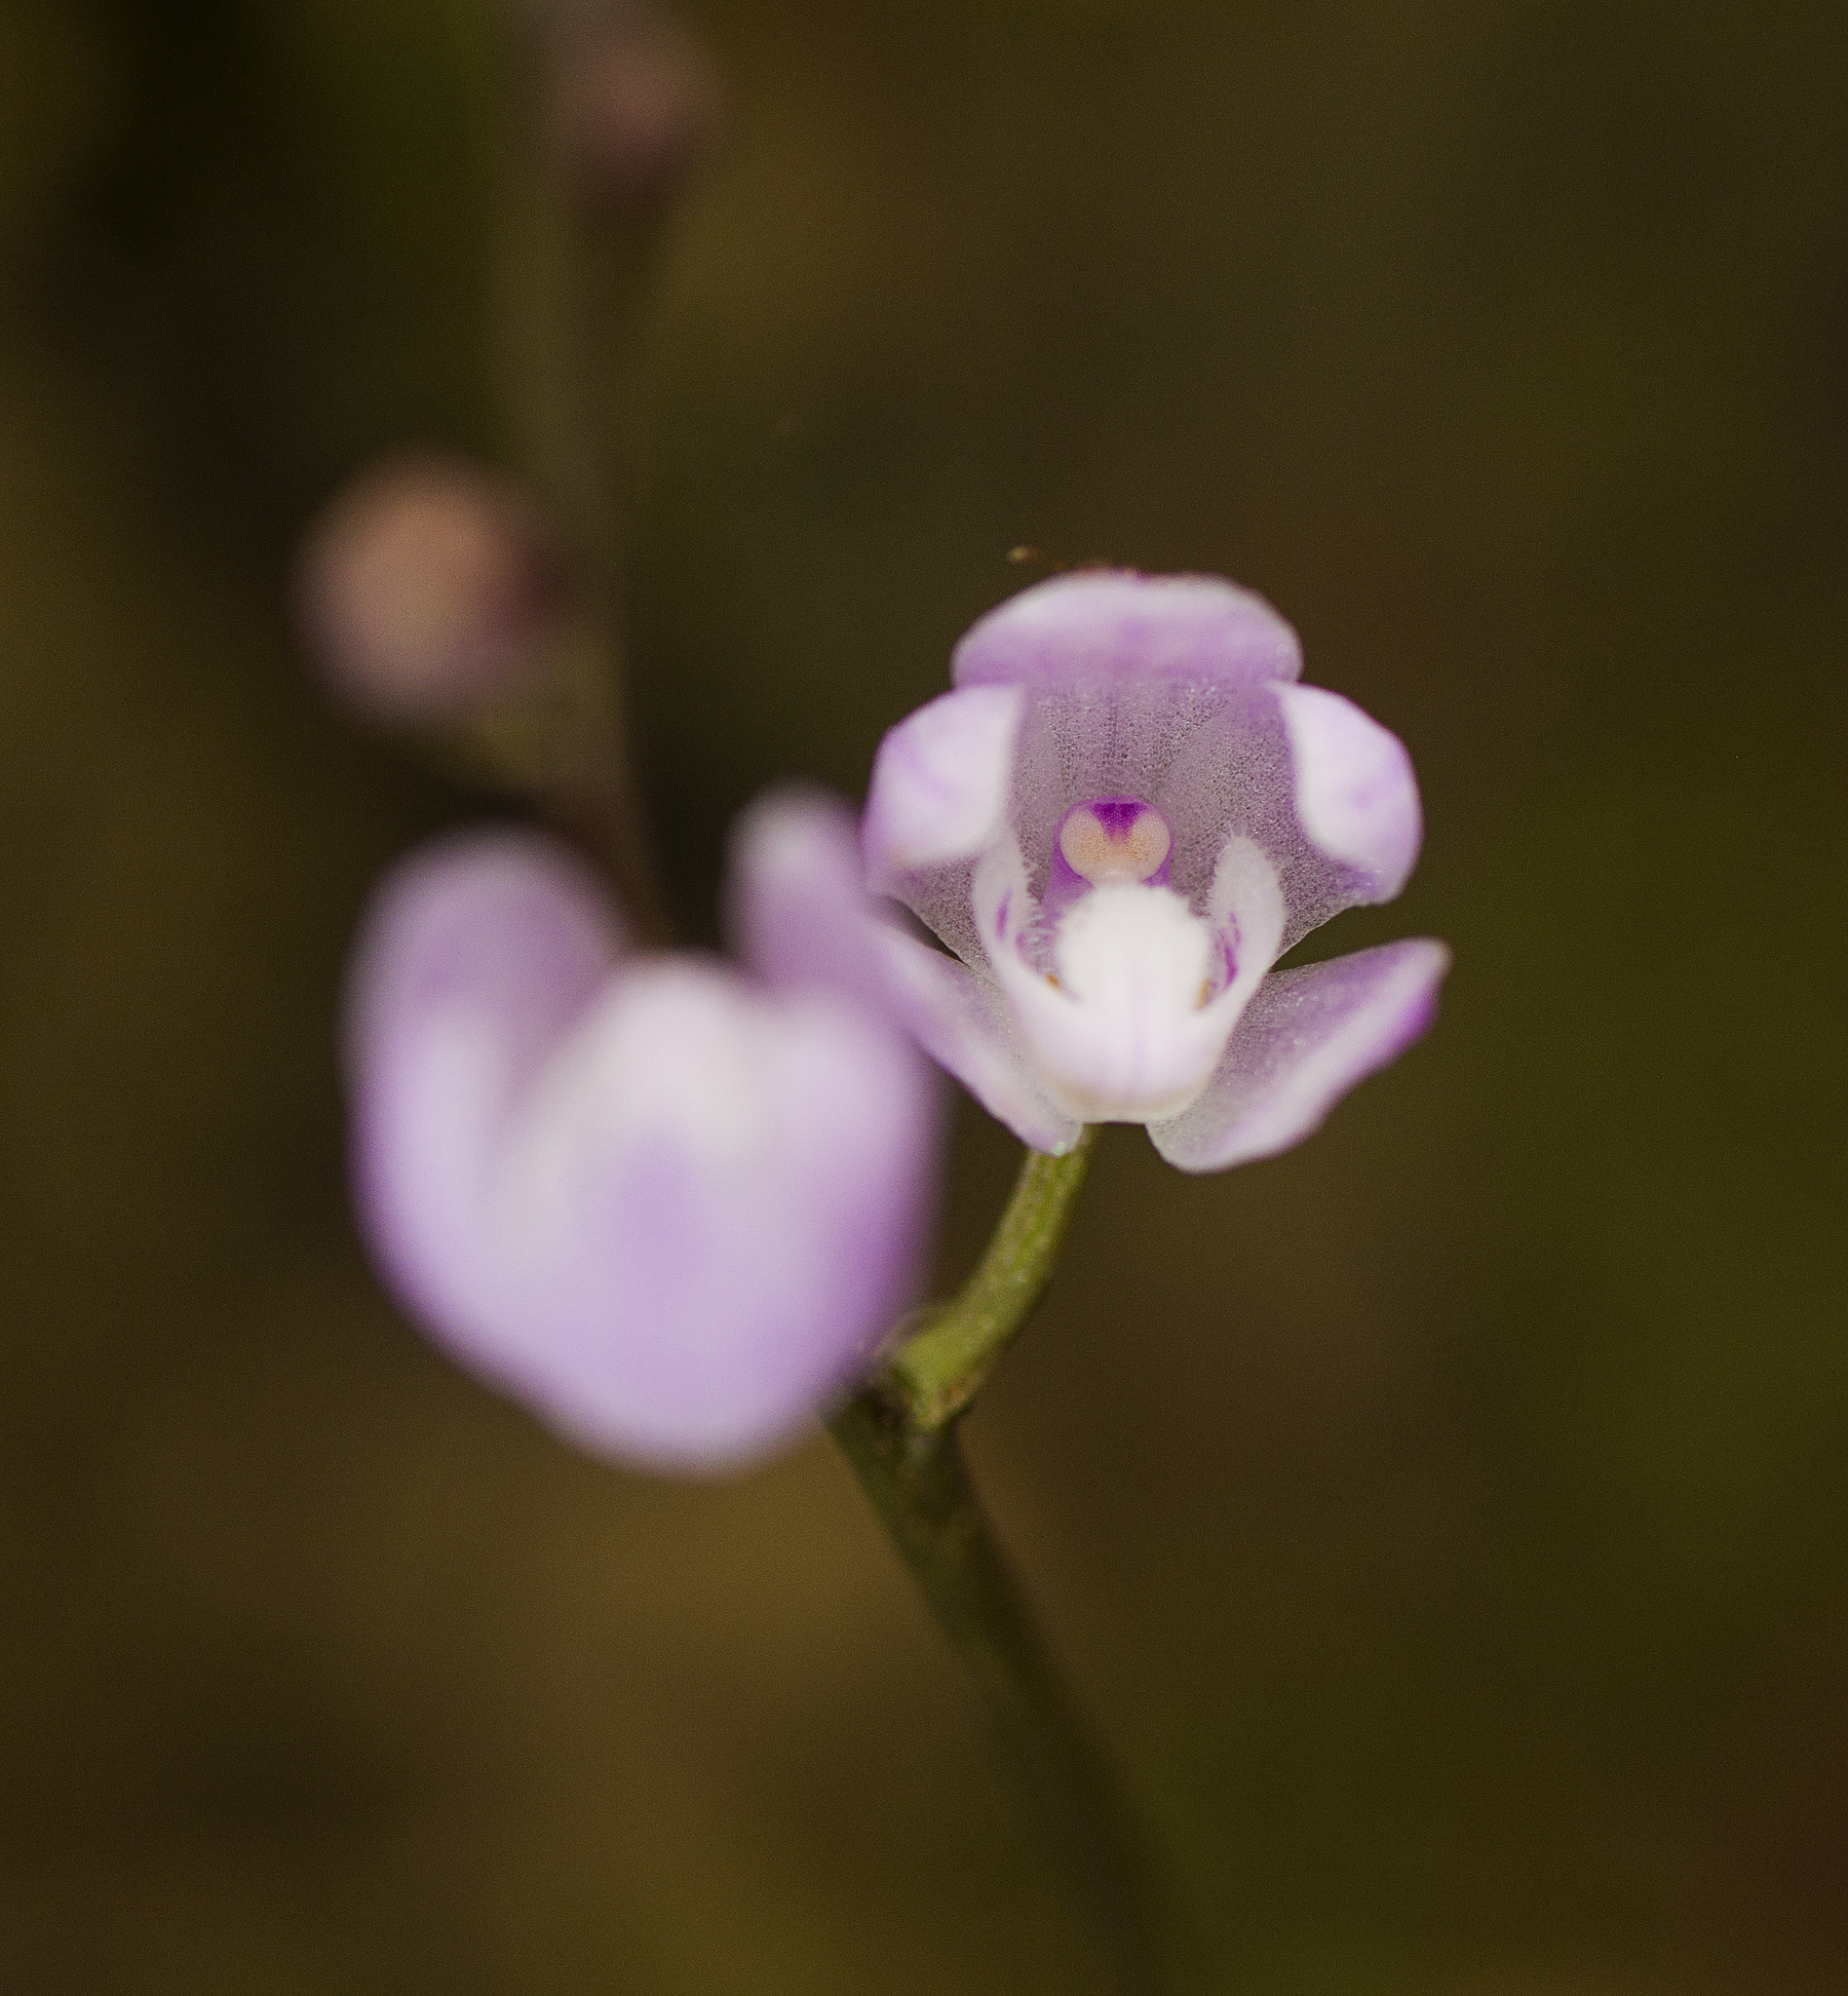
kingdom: Plantae
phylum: Tracheophyta
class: Liliopsida
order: Asparagales
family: Orchidaceae
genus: Sarcochilus
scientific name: Sarcochilus ceciliae
